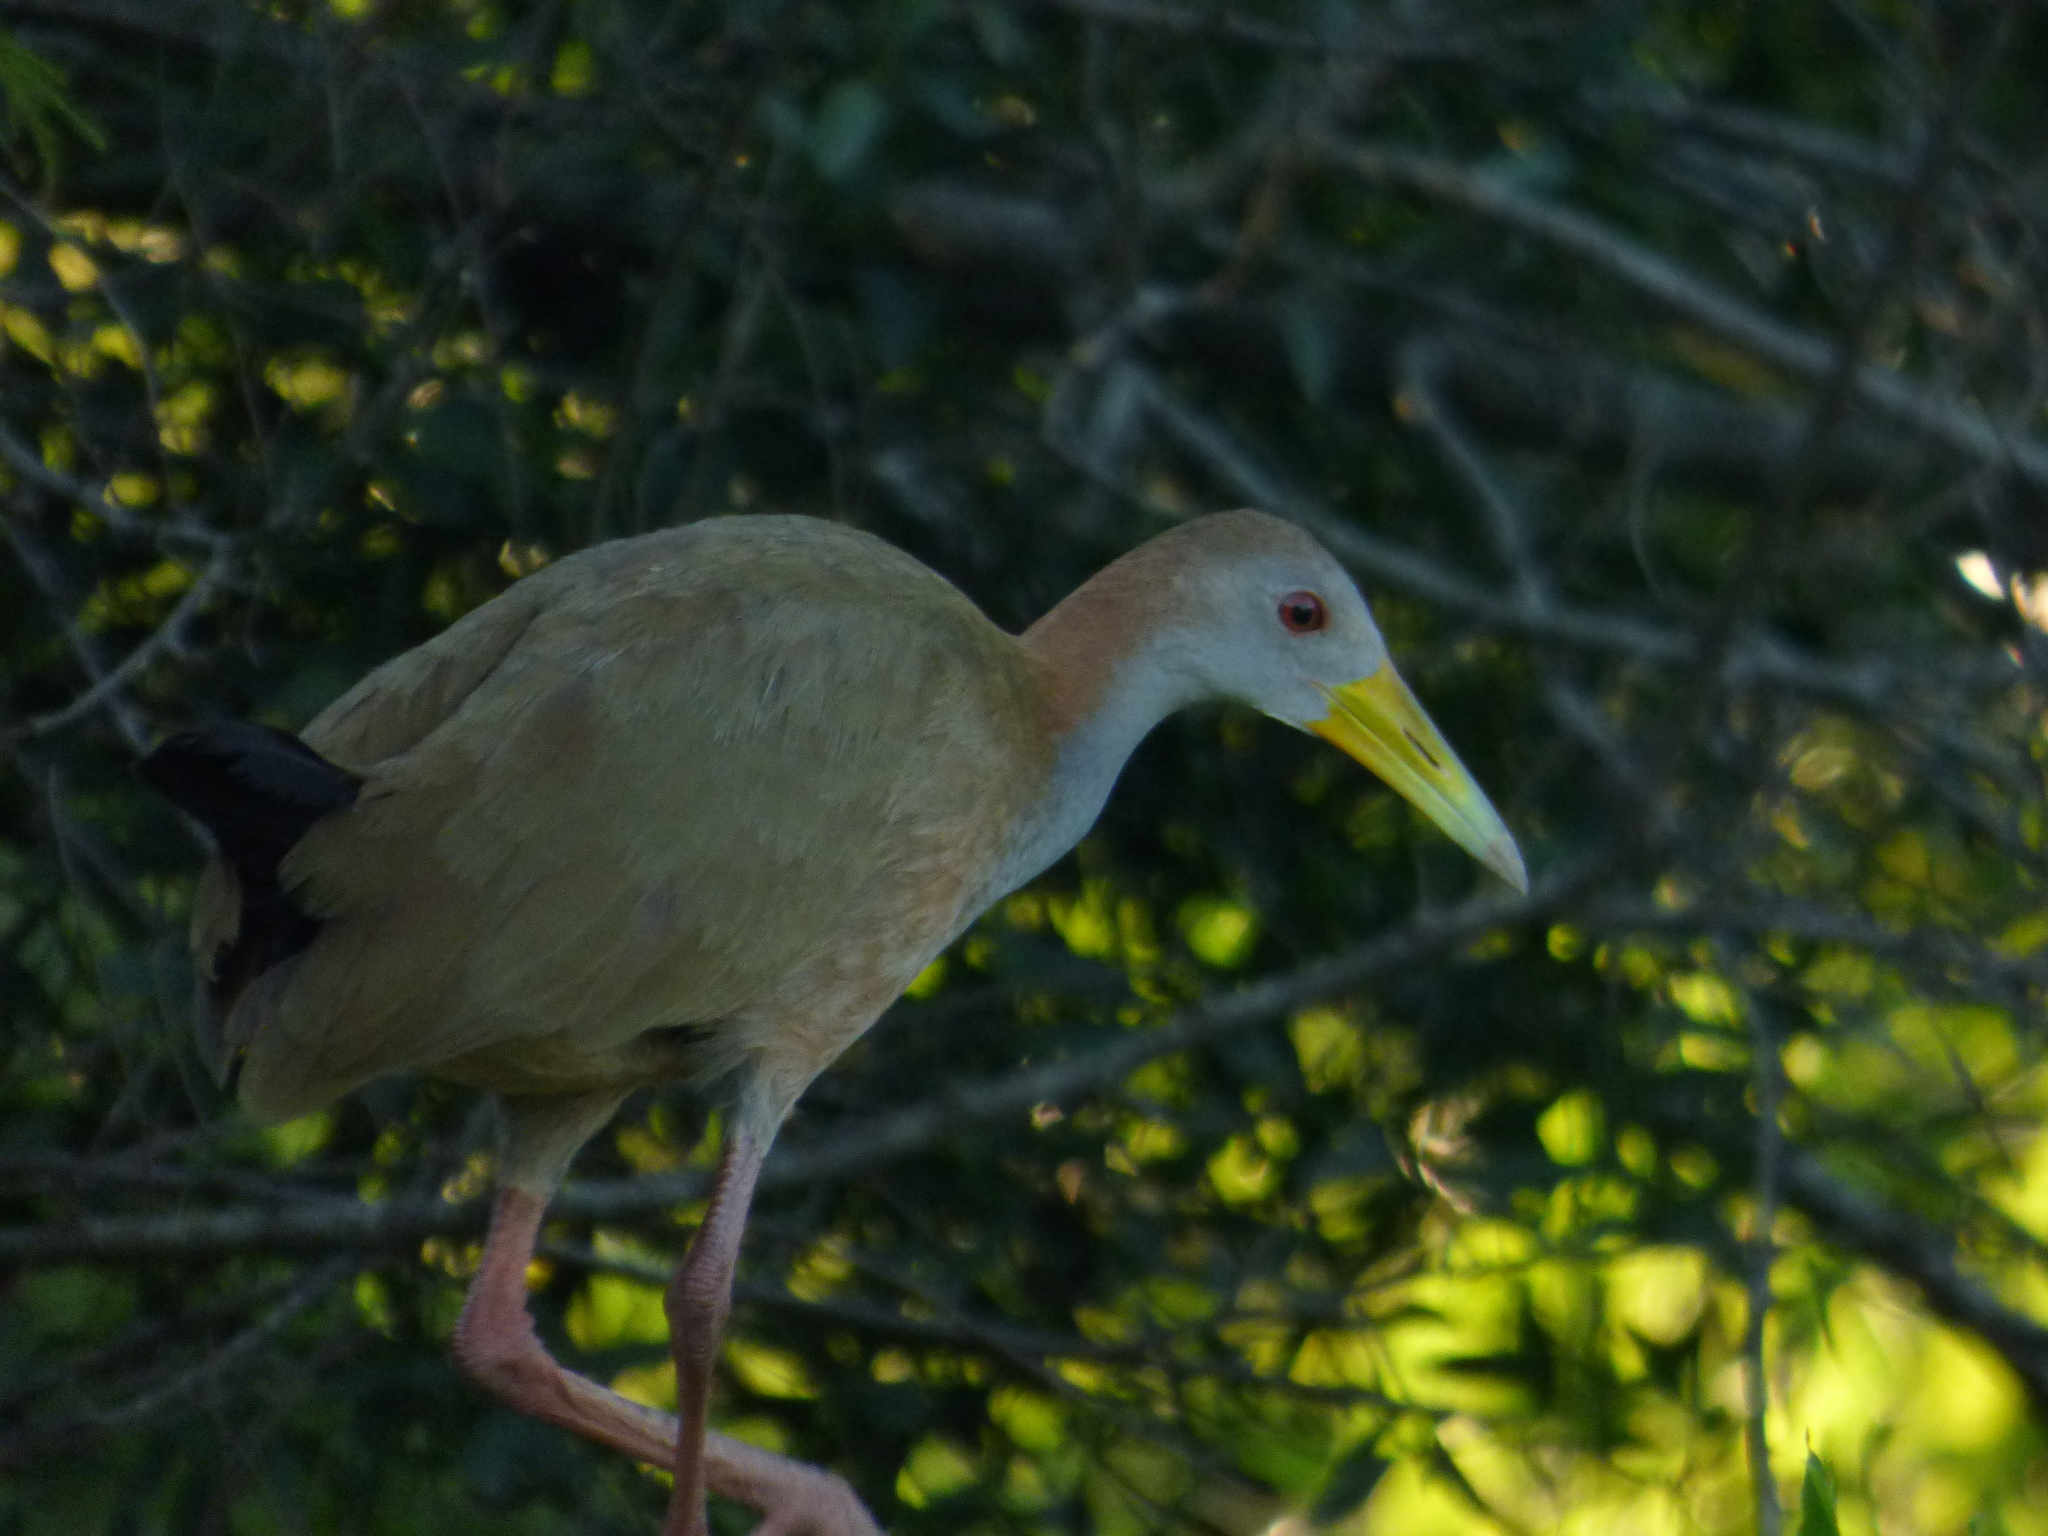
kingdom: Animalia
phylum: Chordata
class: Aves
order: Gruiformes
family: Rallidae
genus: Aramides
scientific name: Aramides ypecaha
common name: Giant wood rail
